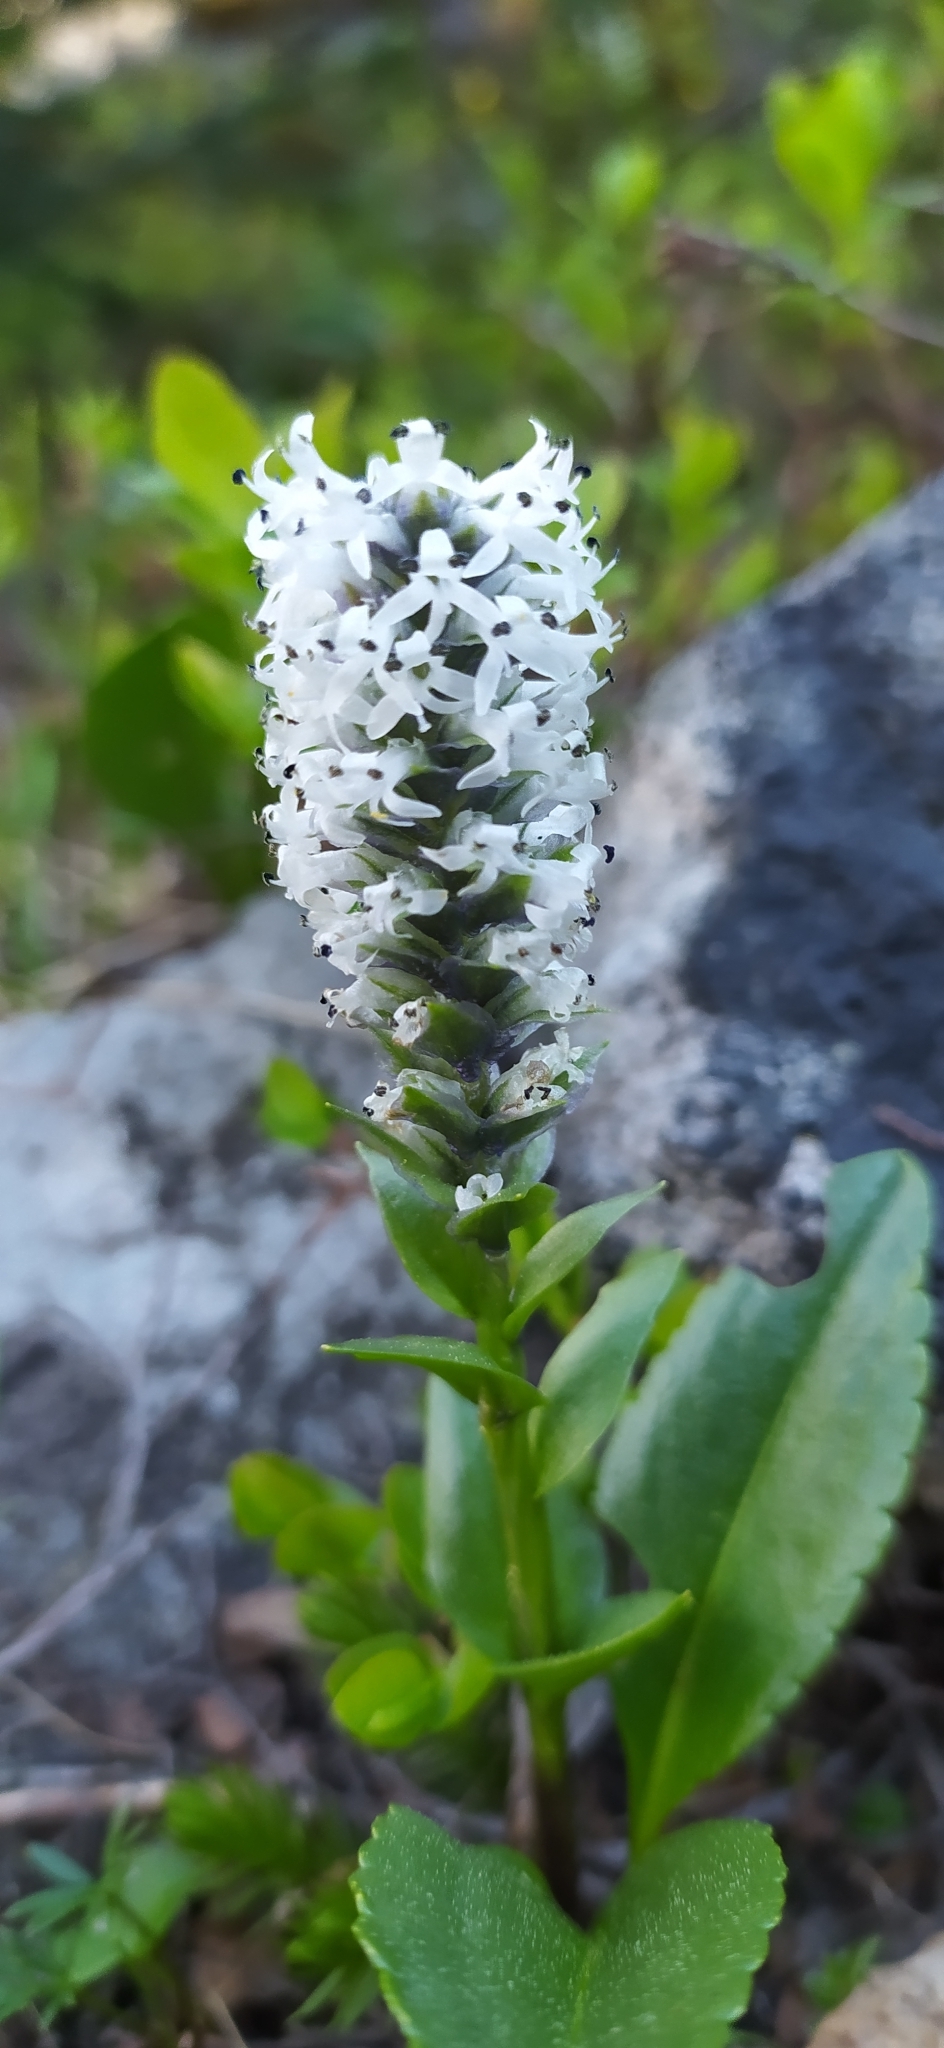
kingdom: Plantae
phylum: Tracheophyta
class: Magnoliopsida
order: Lamiales
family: Plantaginaceae
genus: Lagotis
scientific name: Lagotis uralensis
